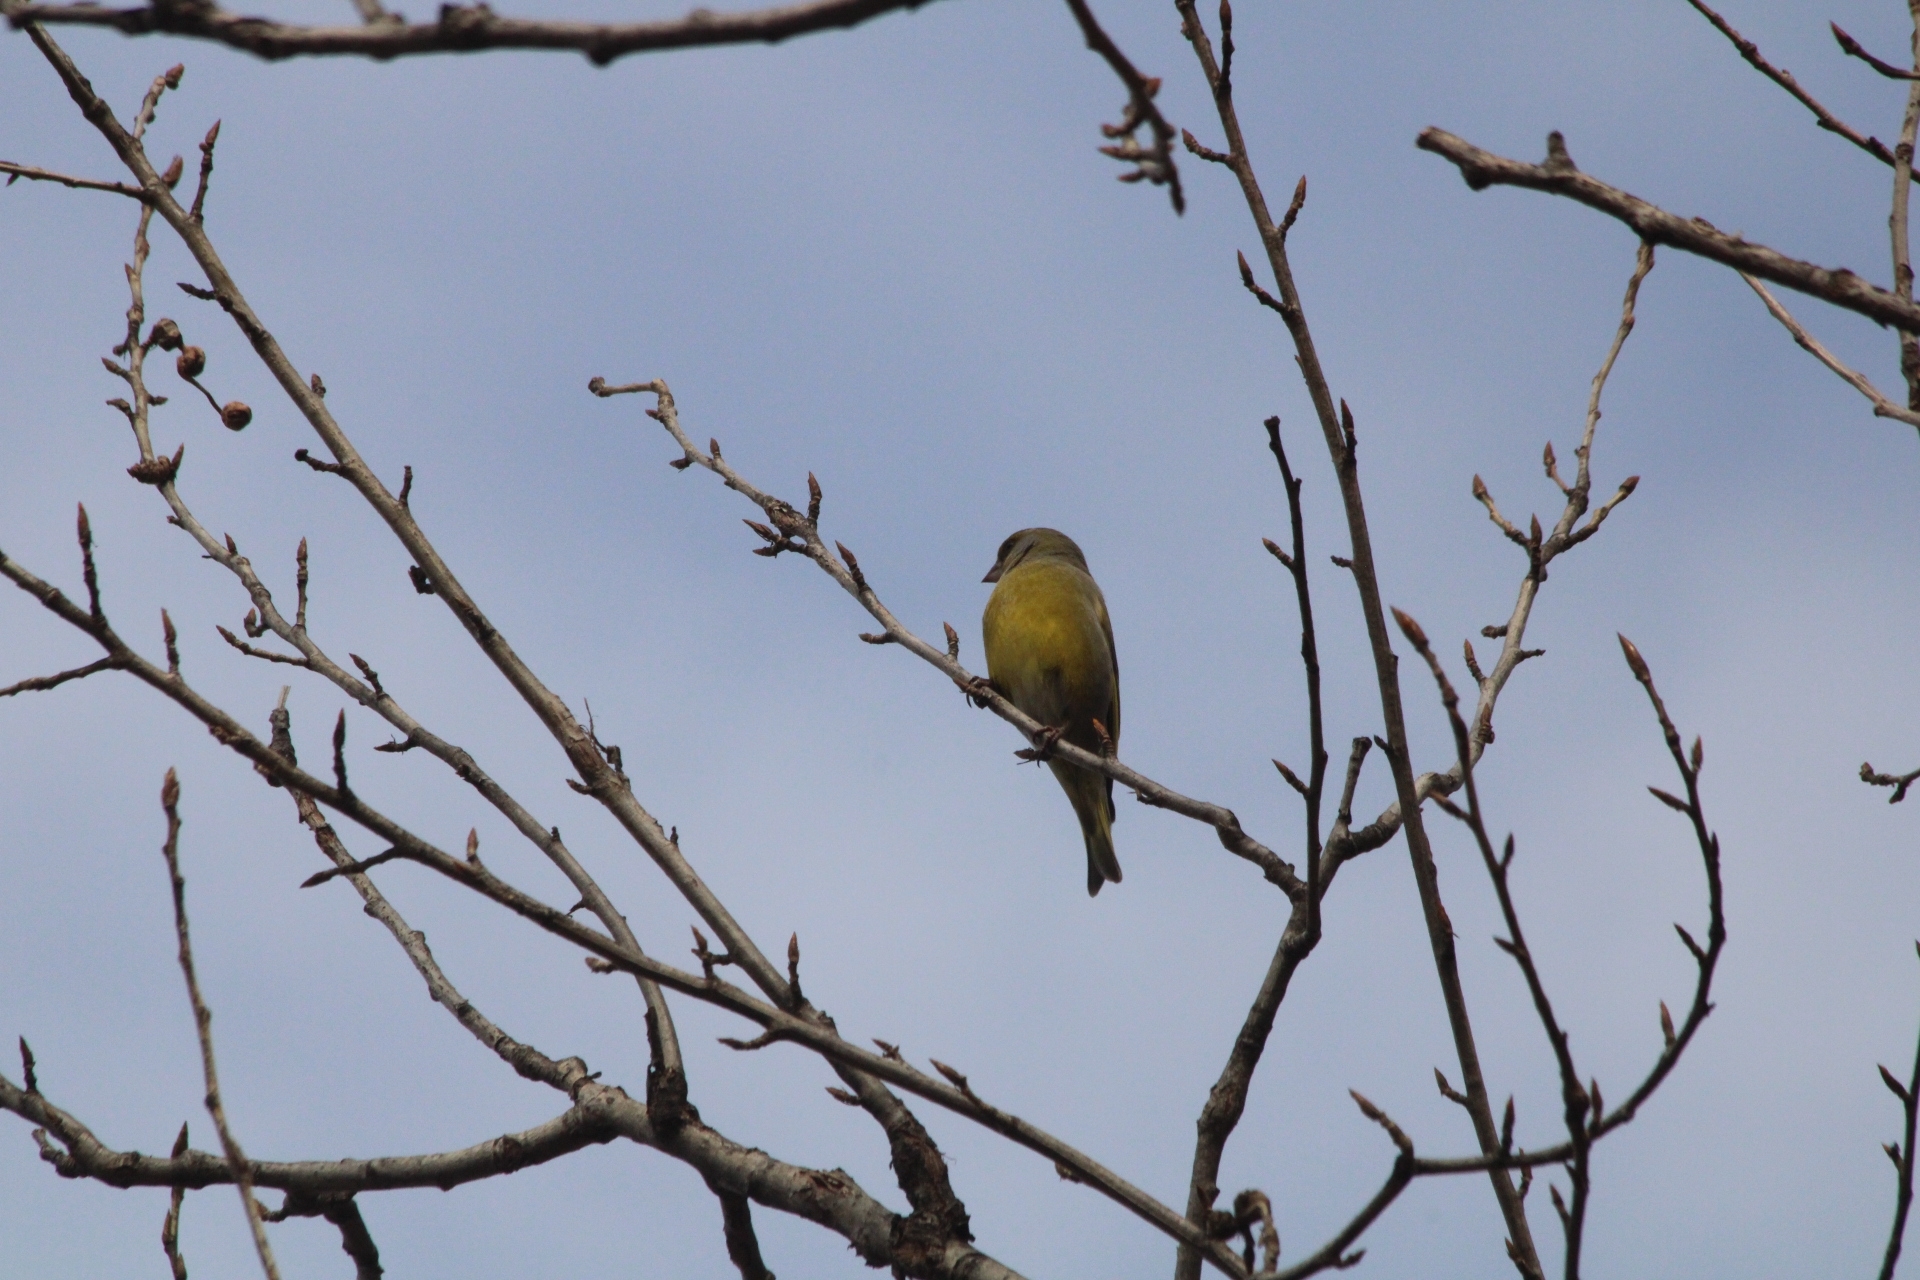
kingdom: Plantae
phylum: Tracheophyta
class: Liliopsida
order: Poales
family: Poaceae
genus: Chloris
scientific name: Chloris chloris
